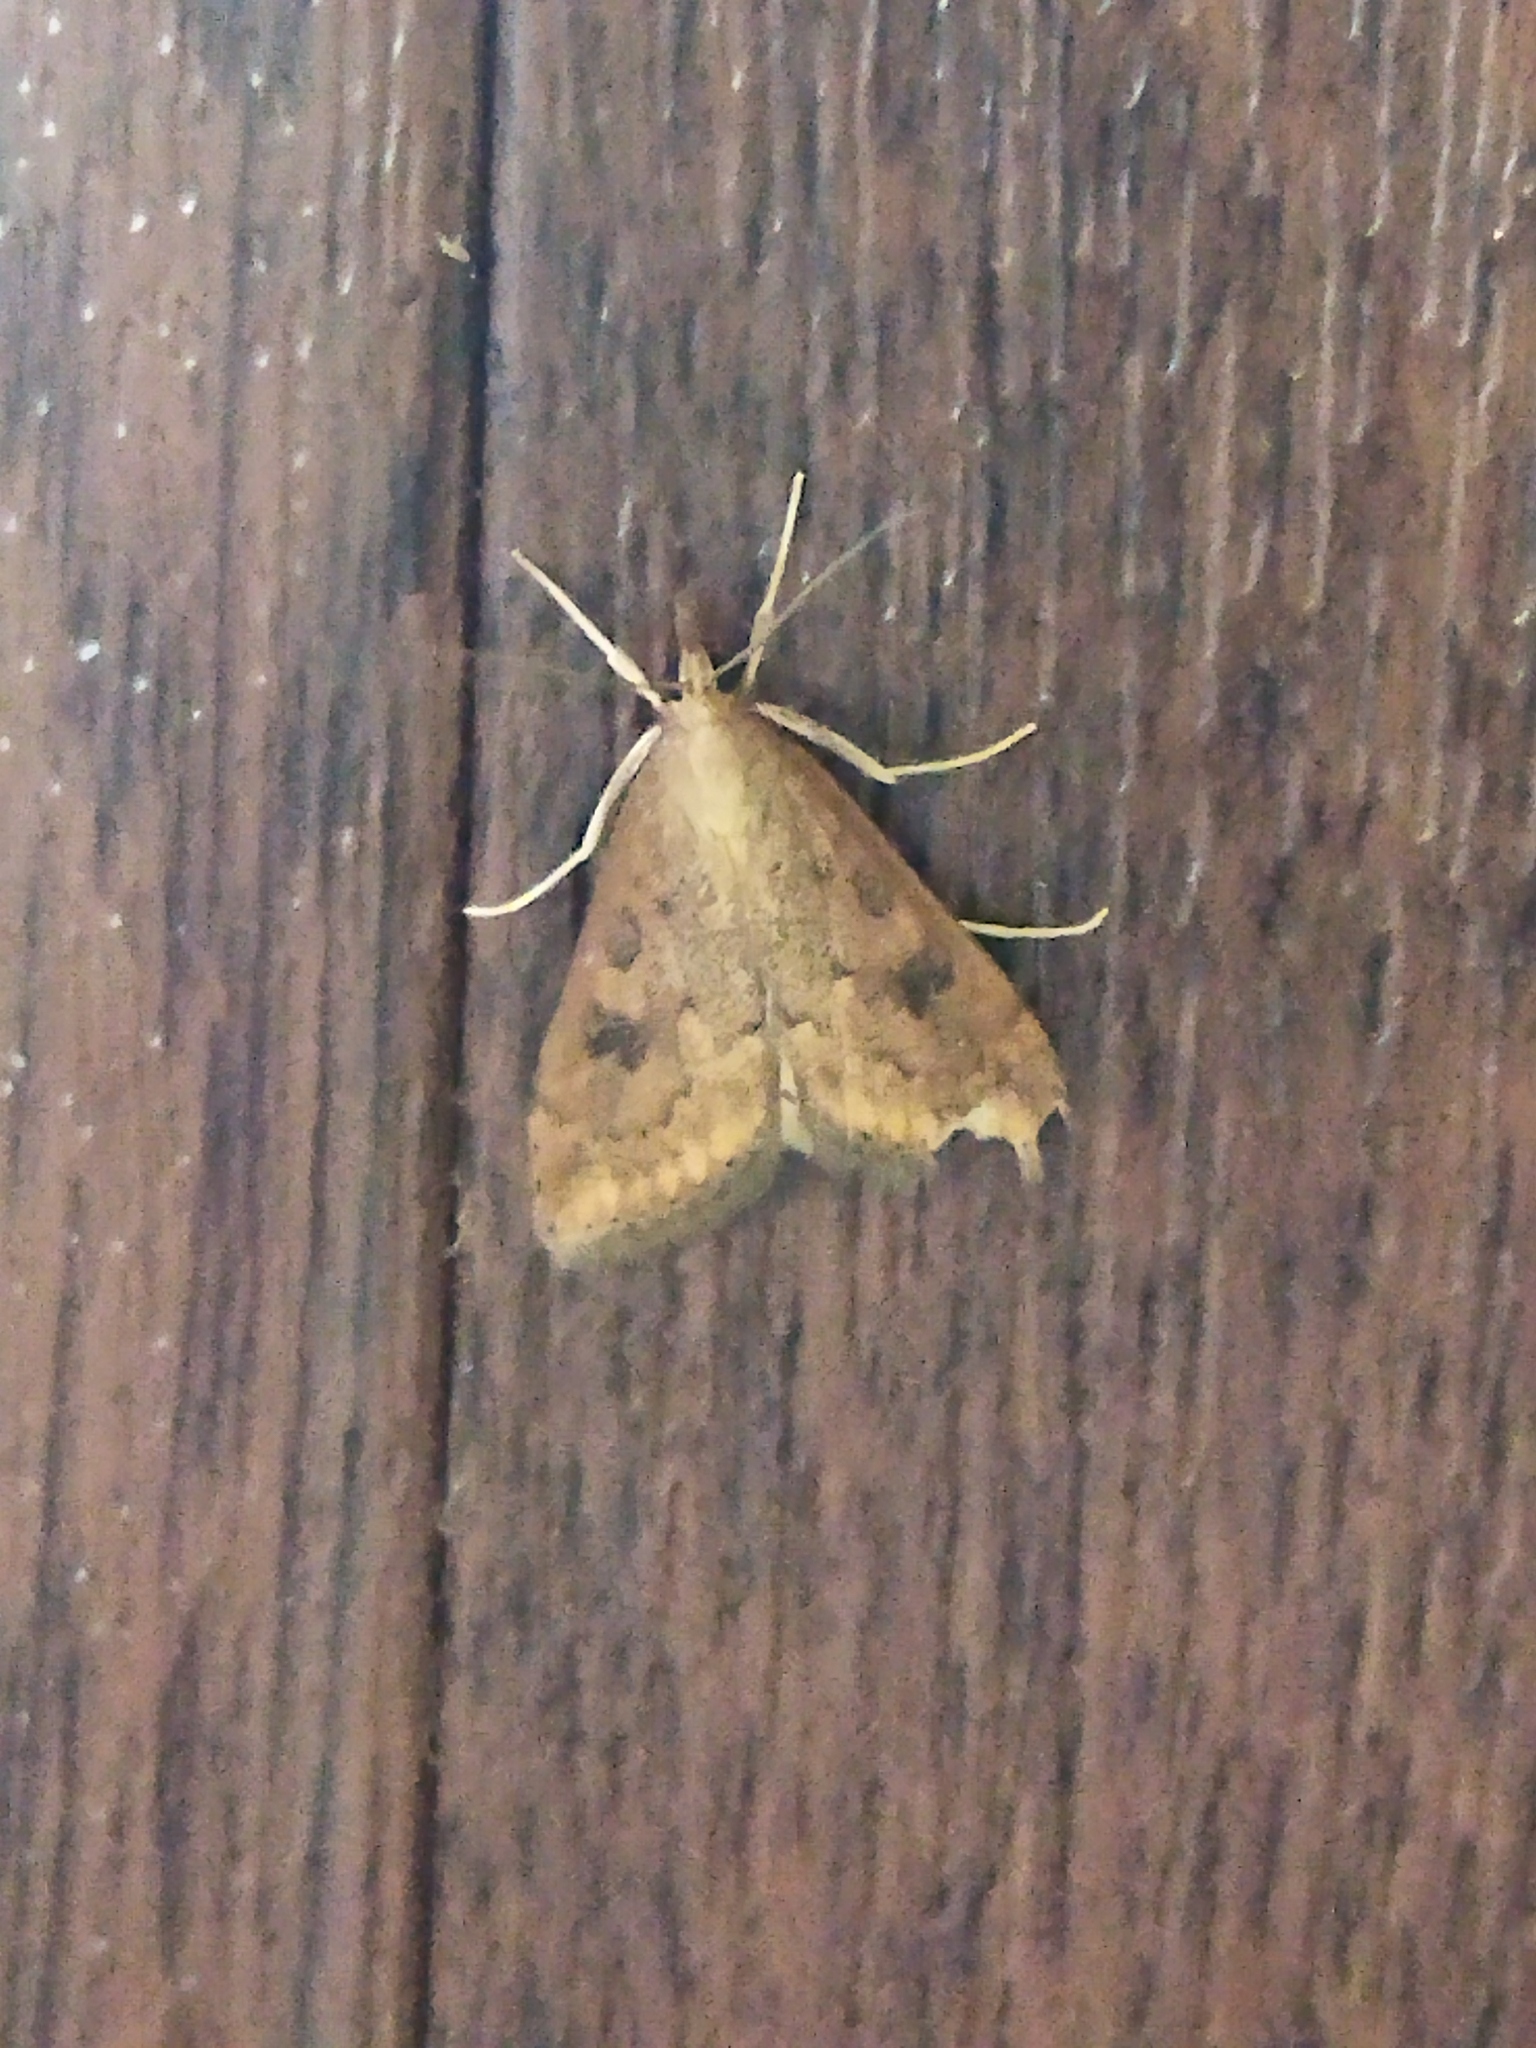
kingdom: Animalia
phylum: Arthropoda
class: Insecta
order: Lepidoptera
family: Crambidae
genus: Udea
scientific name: Udea ferrugalis
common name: Rusty dot
